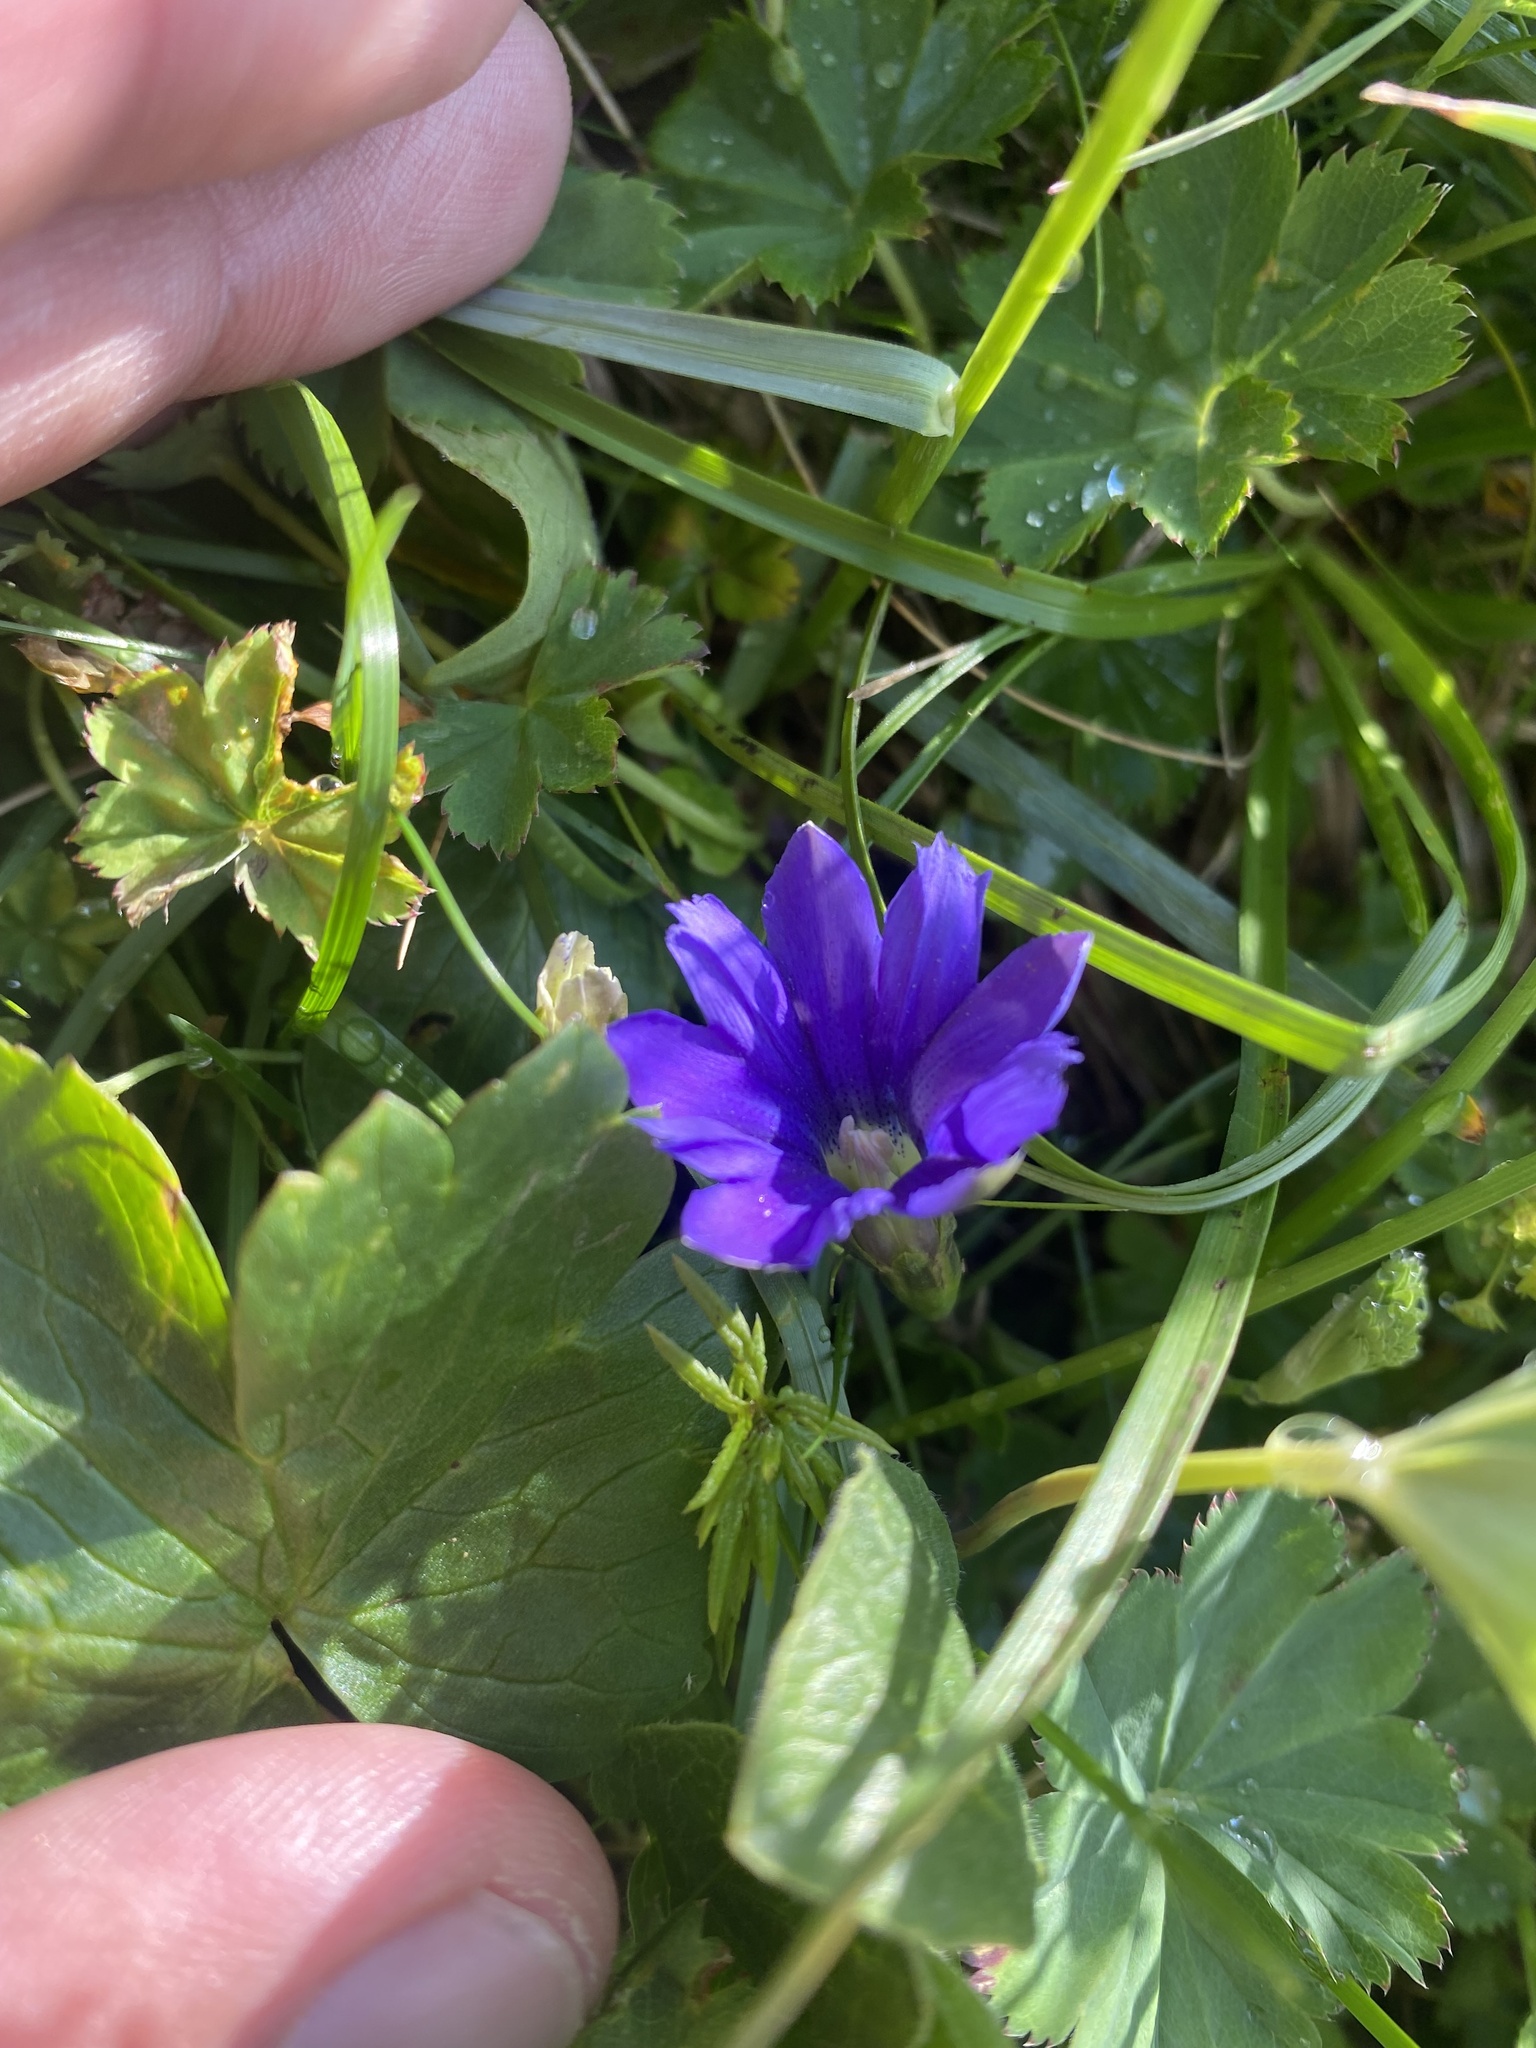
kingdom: Plantae
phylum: Tracheophyta
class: Magnoliopsida
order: Gentianales
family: Gentianaceae
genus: Gentiana
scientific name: Gentiana dshimilensis
